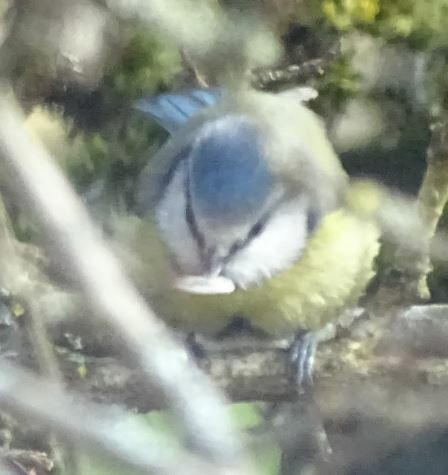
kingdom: Animalia
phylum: Chordata
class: Aves
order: Passeriformes
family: Paridae
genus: Cyanistes
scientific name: Cyanistes caeruleus
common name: Eurasian blue tit
